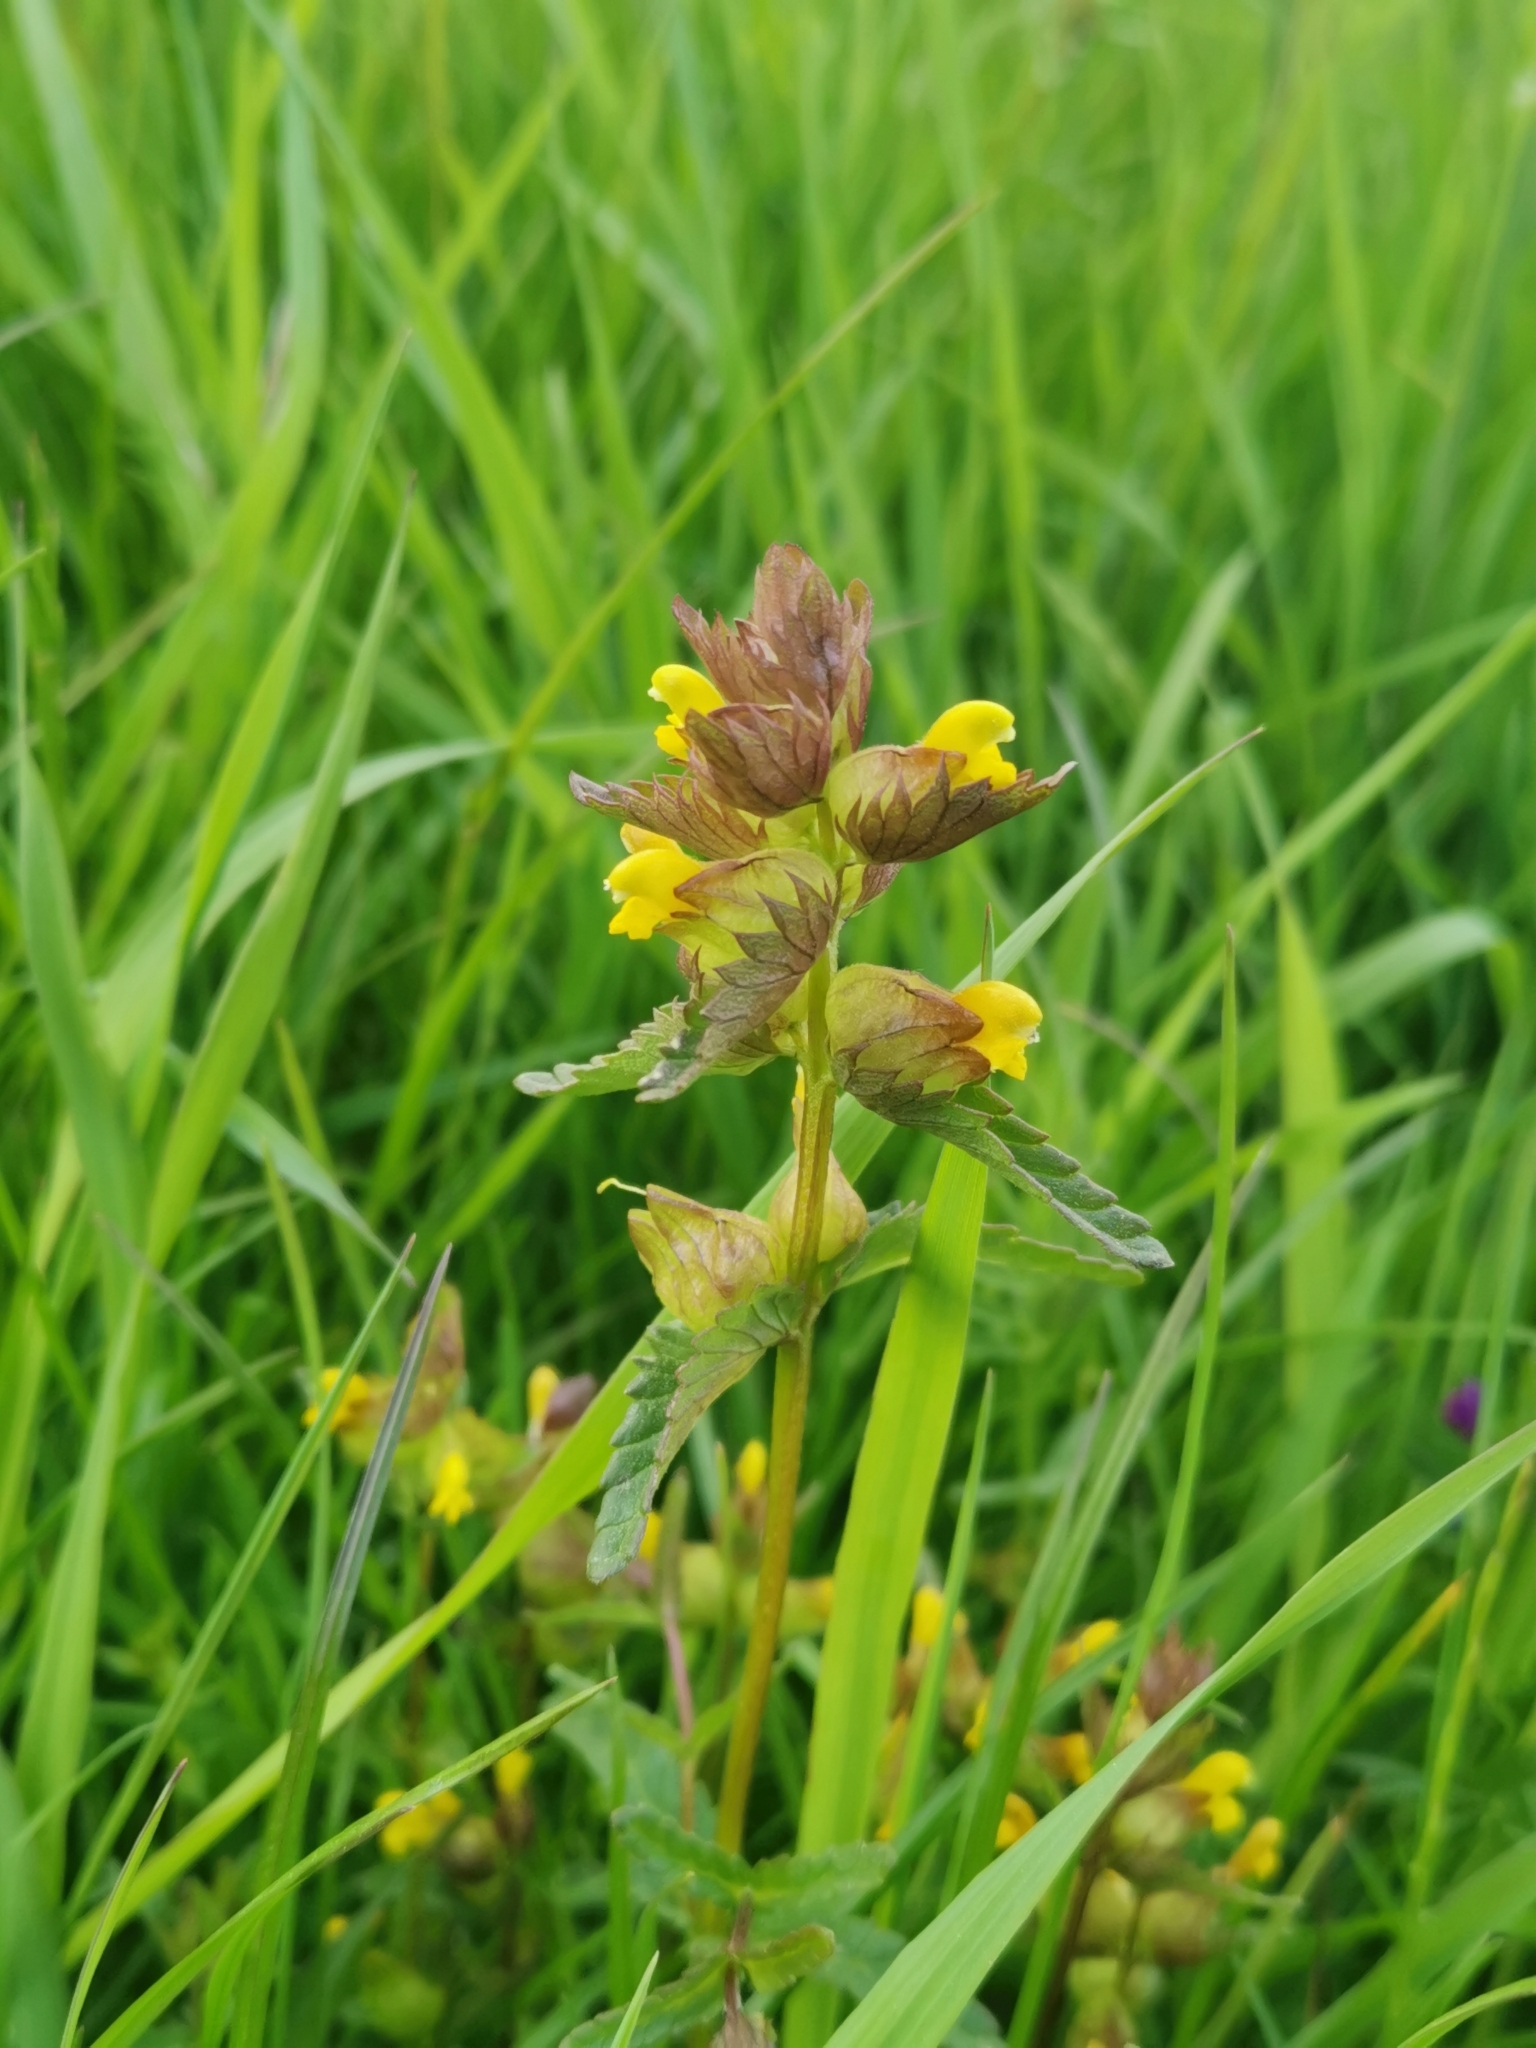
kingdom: Plantae
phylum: Tracheophyta
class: Magnoliopsida
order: Lamiales
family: Orobanchaceae
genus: Rhinanthus
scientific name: Rhinanthus minor
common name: Yellow-rattle
